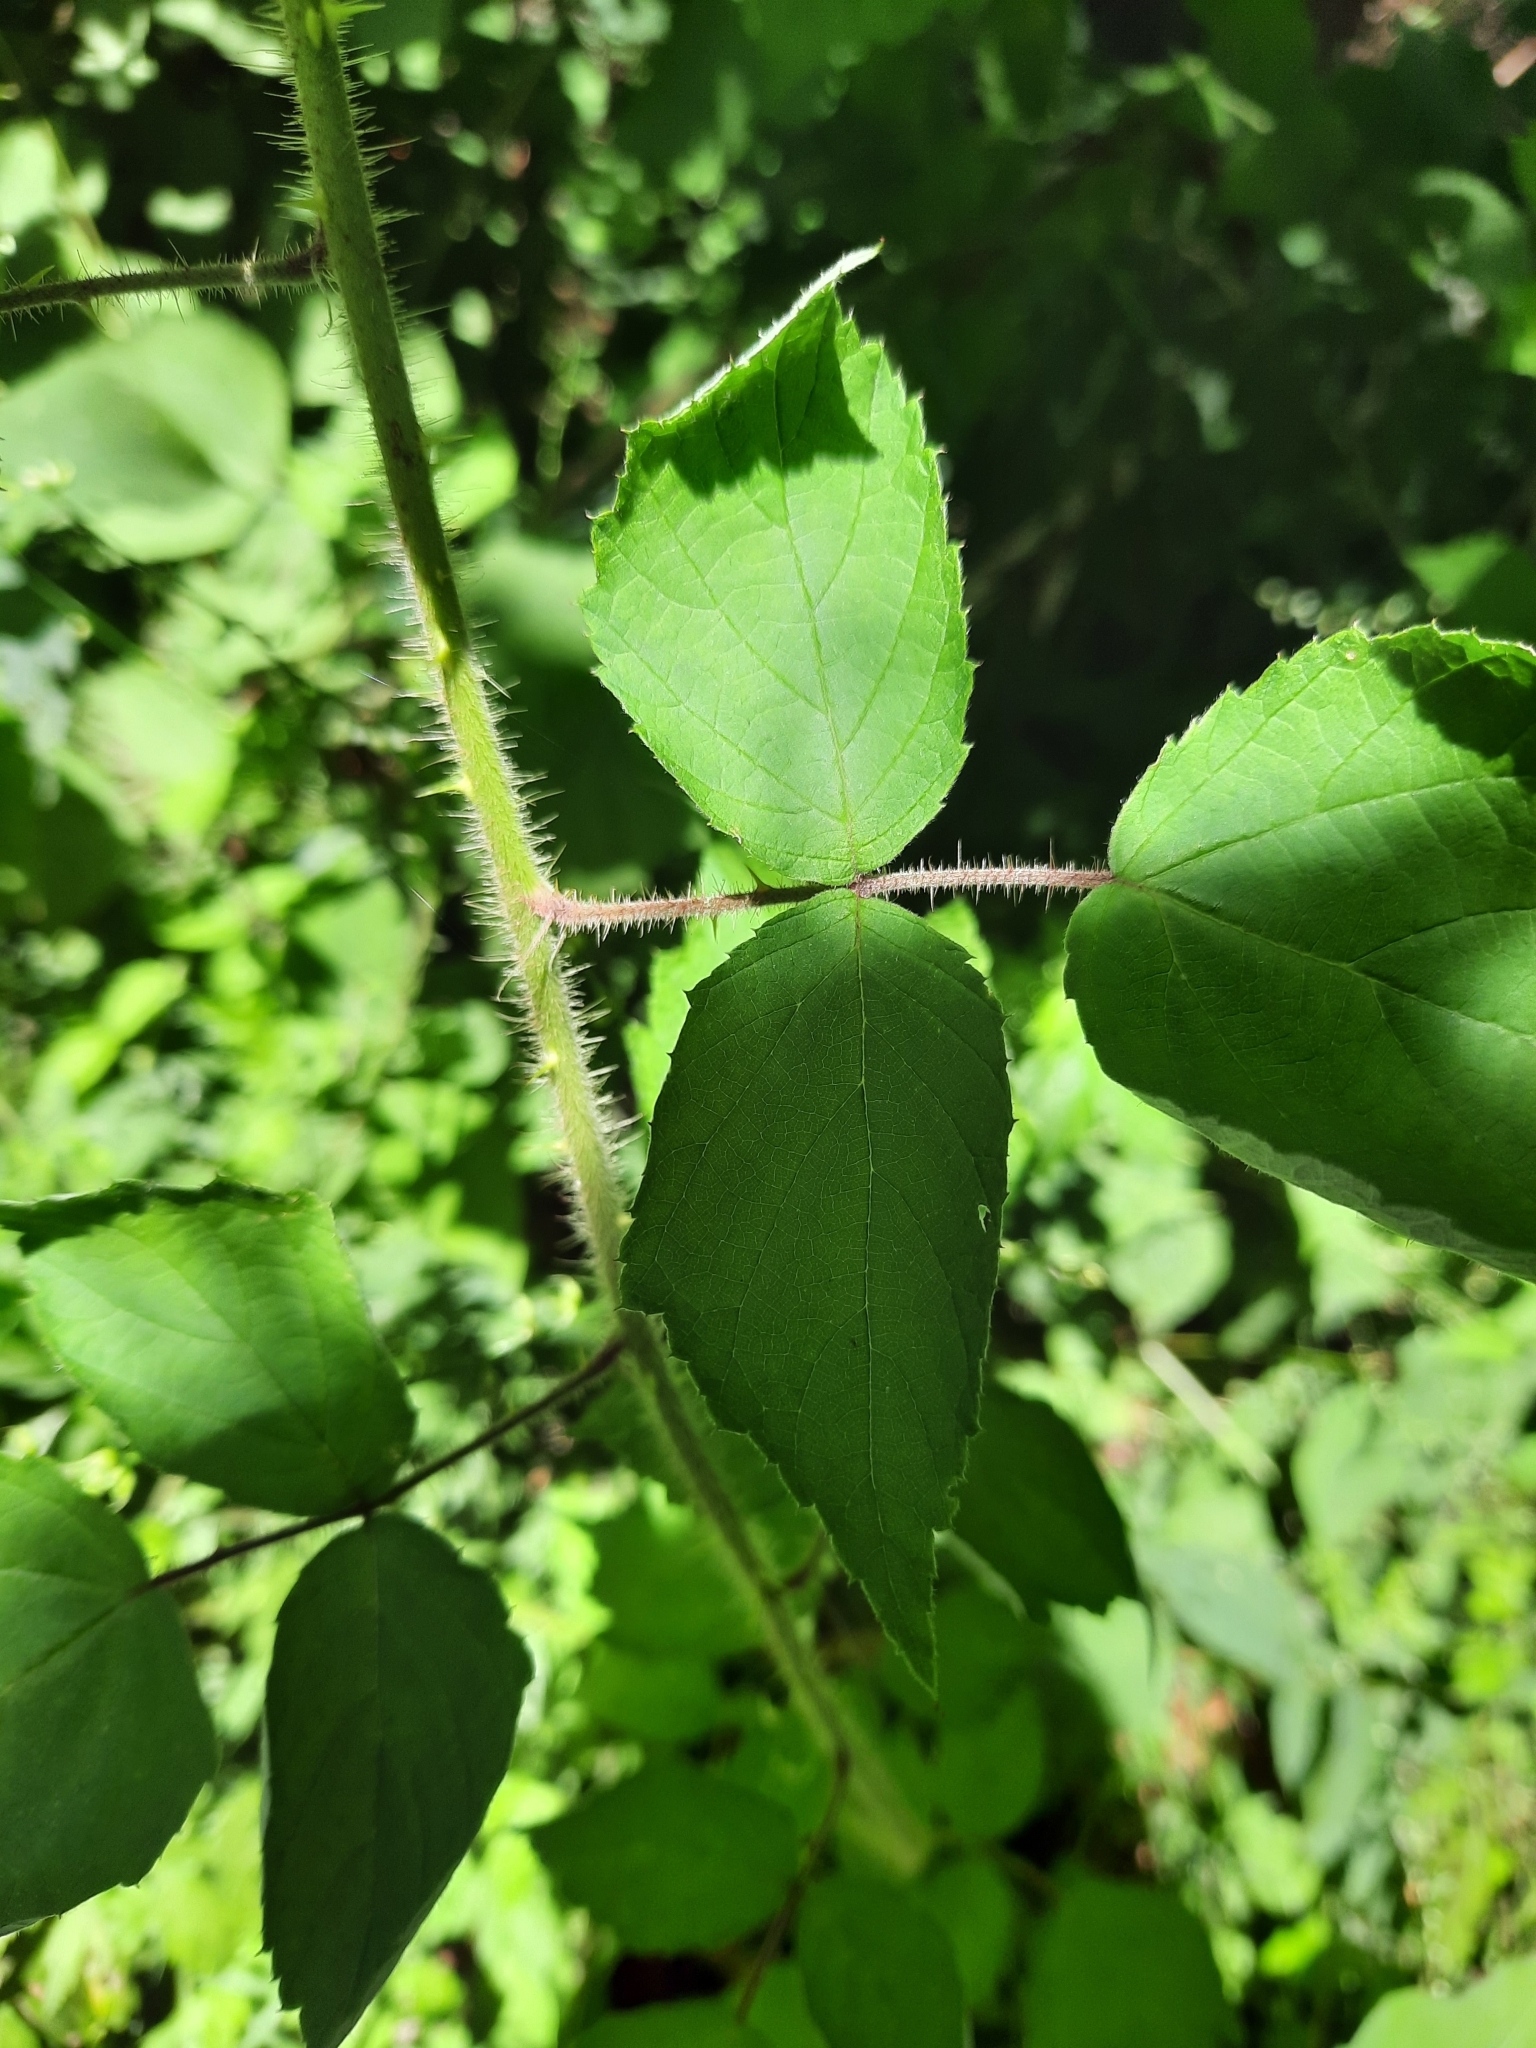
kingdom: Plantae
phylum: Tracheophyta
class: Magnoliopsida
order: Rosales
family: Rosaceae
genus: Rubus
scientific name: Rubus phoenicolasius
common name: Japanese wineberry
